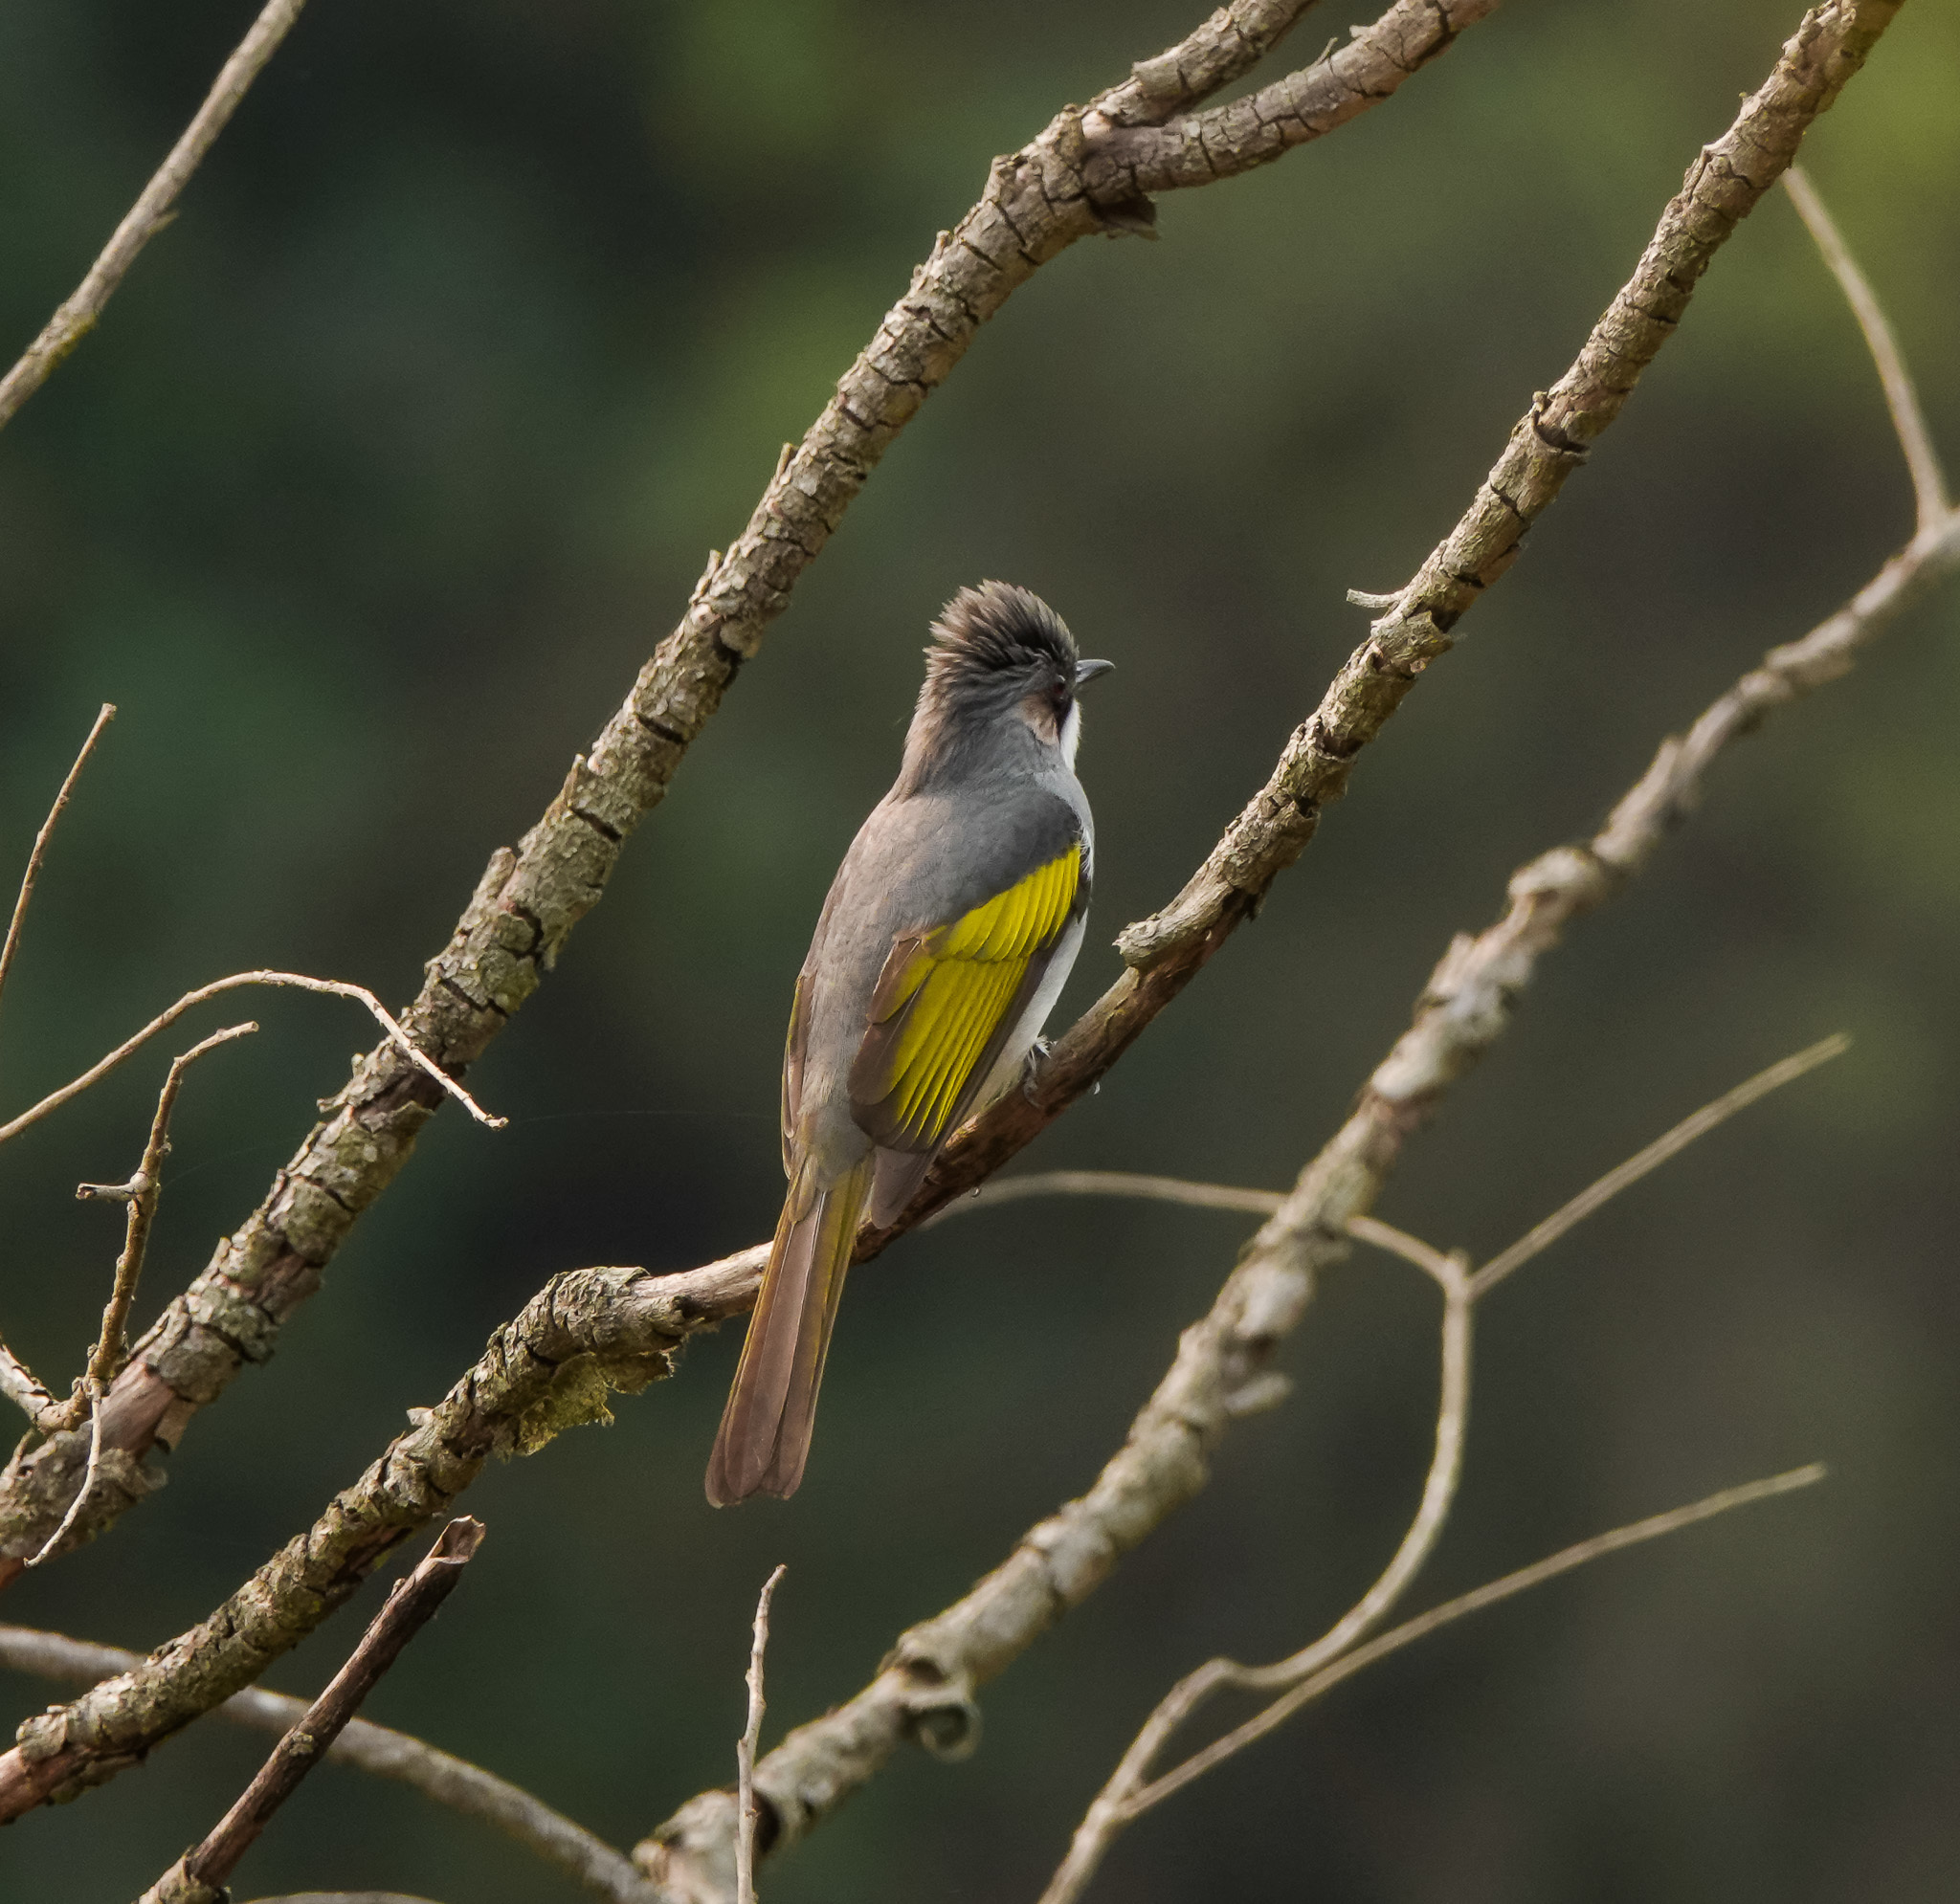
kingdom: Animalia
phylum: Chordata
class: Aves
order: Passeriformes
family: Pycnonotidae
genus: Hemixos
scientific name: Hemixos flavala
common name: Ashy bulbul
